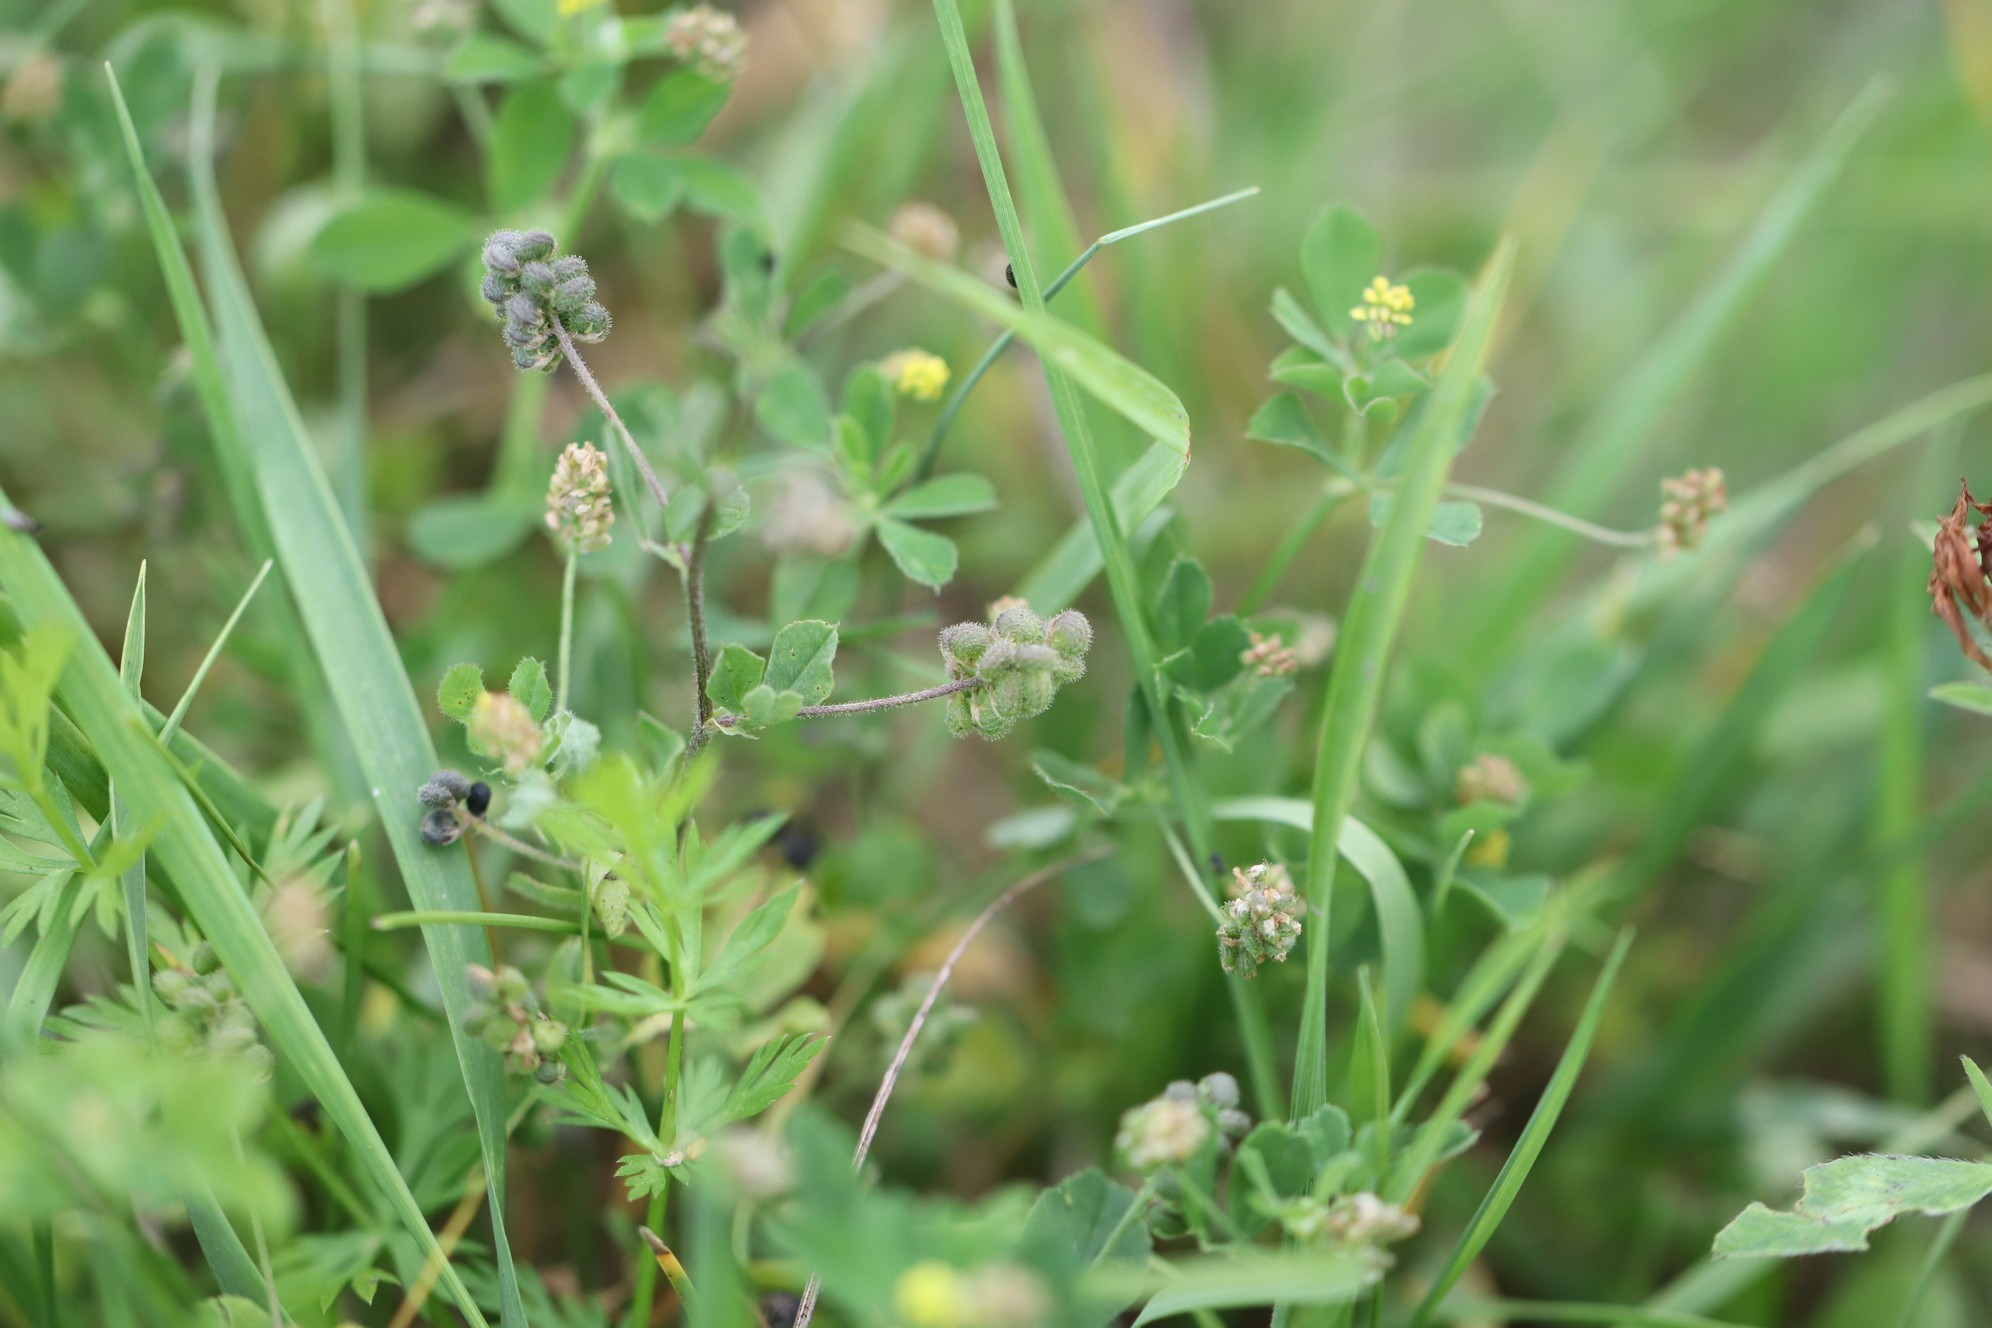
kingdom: Plantae
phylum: Tracheophyta
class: Magnoliopsida
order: Fabales
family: Fabaceae
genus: Medicago
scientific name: Medicago lupulina
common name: Black medick
